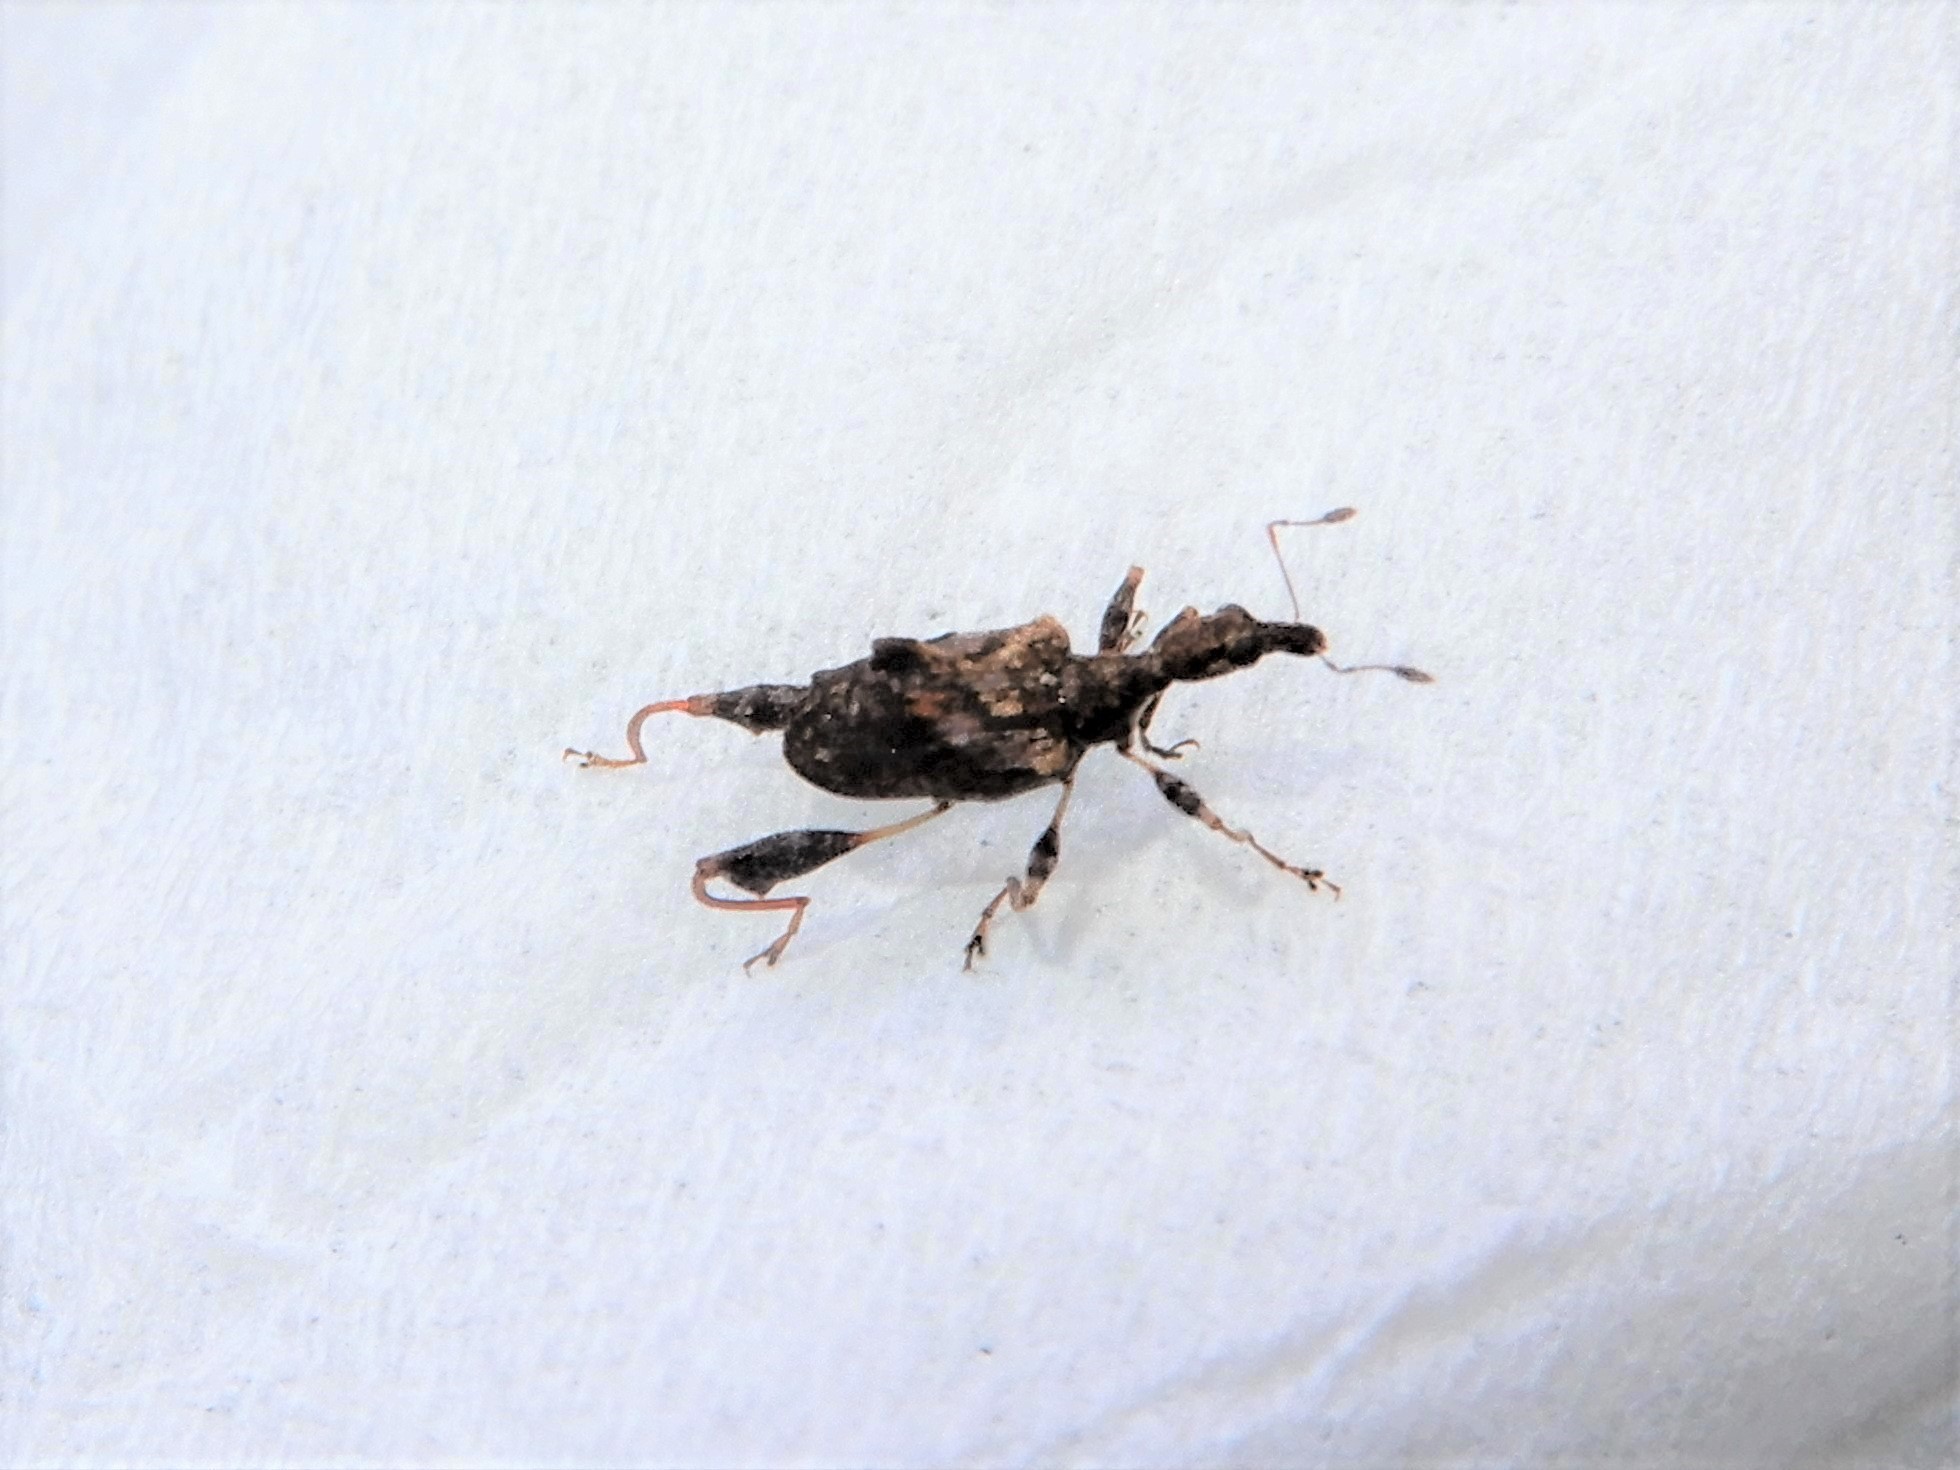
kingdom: Animalia
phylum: Arthropoda
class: Insecta
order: Coleoptera
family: Curculionidae
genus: Stephanorhynchus
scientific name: Stephanorhynchus lawsoni
